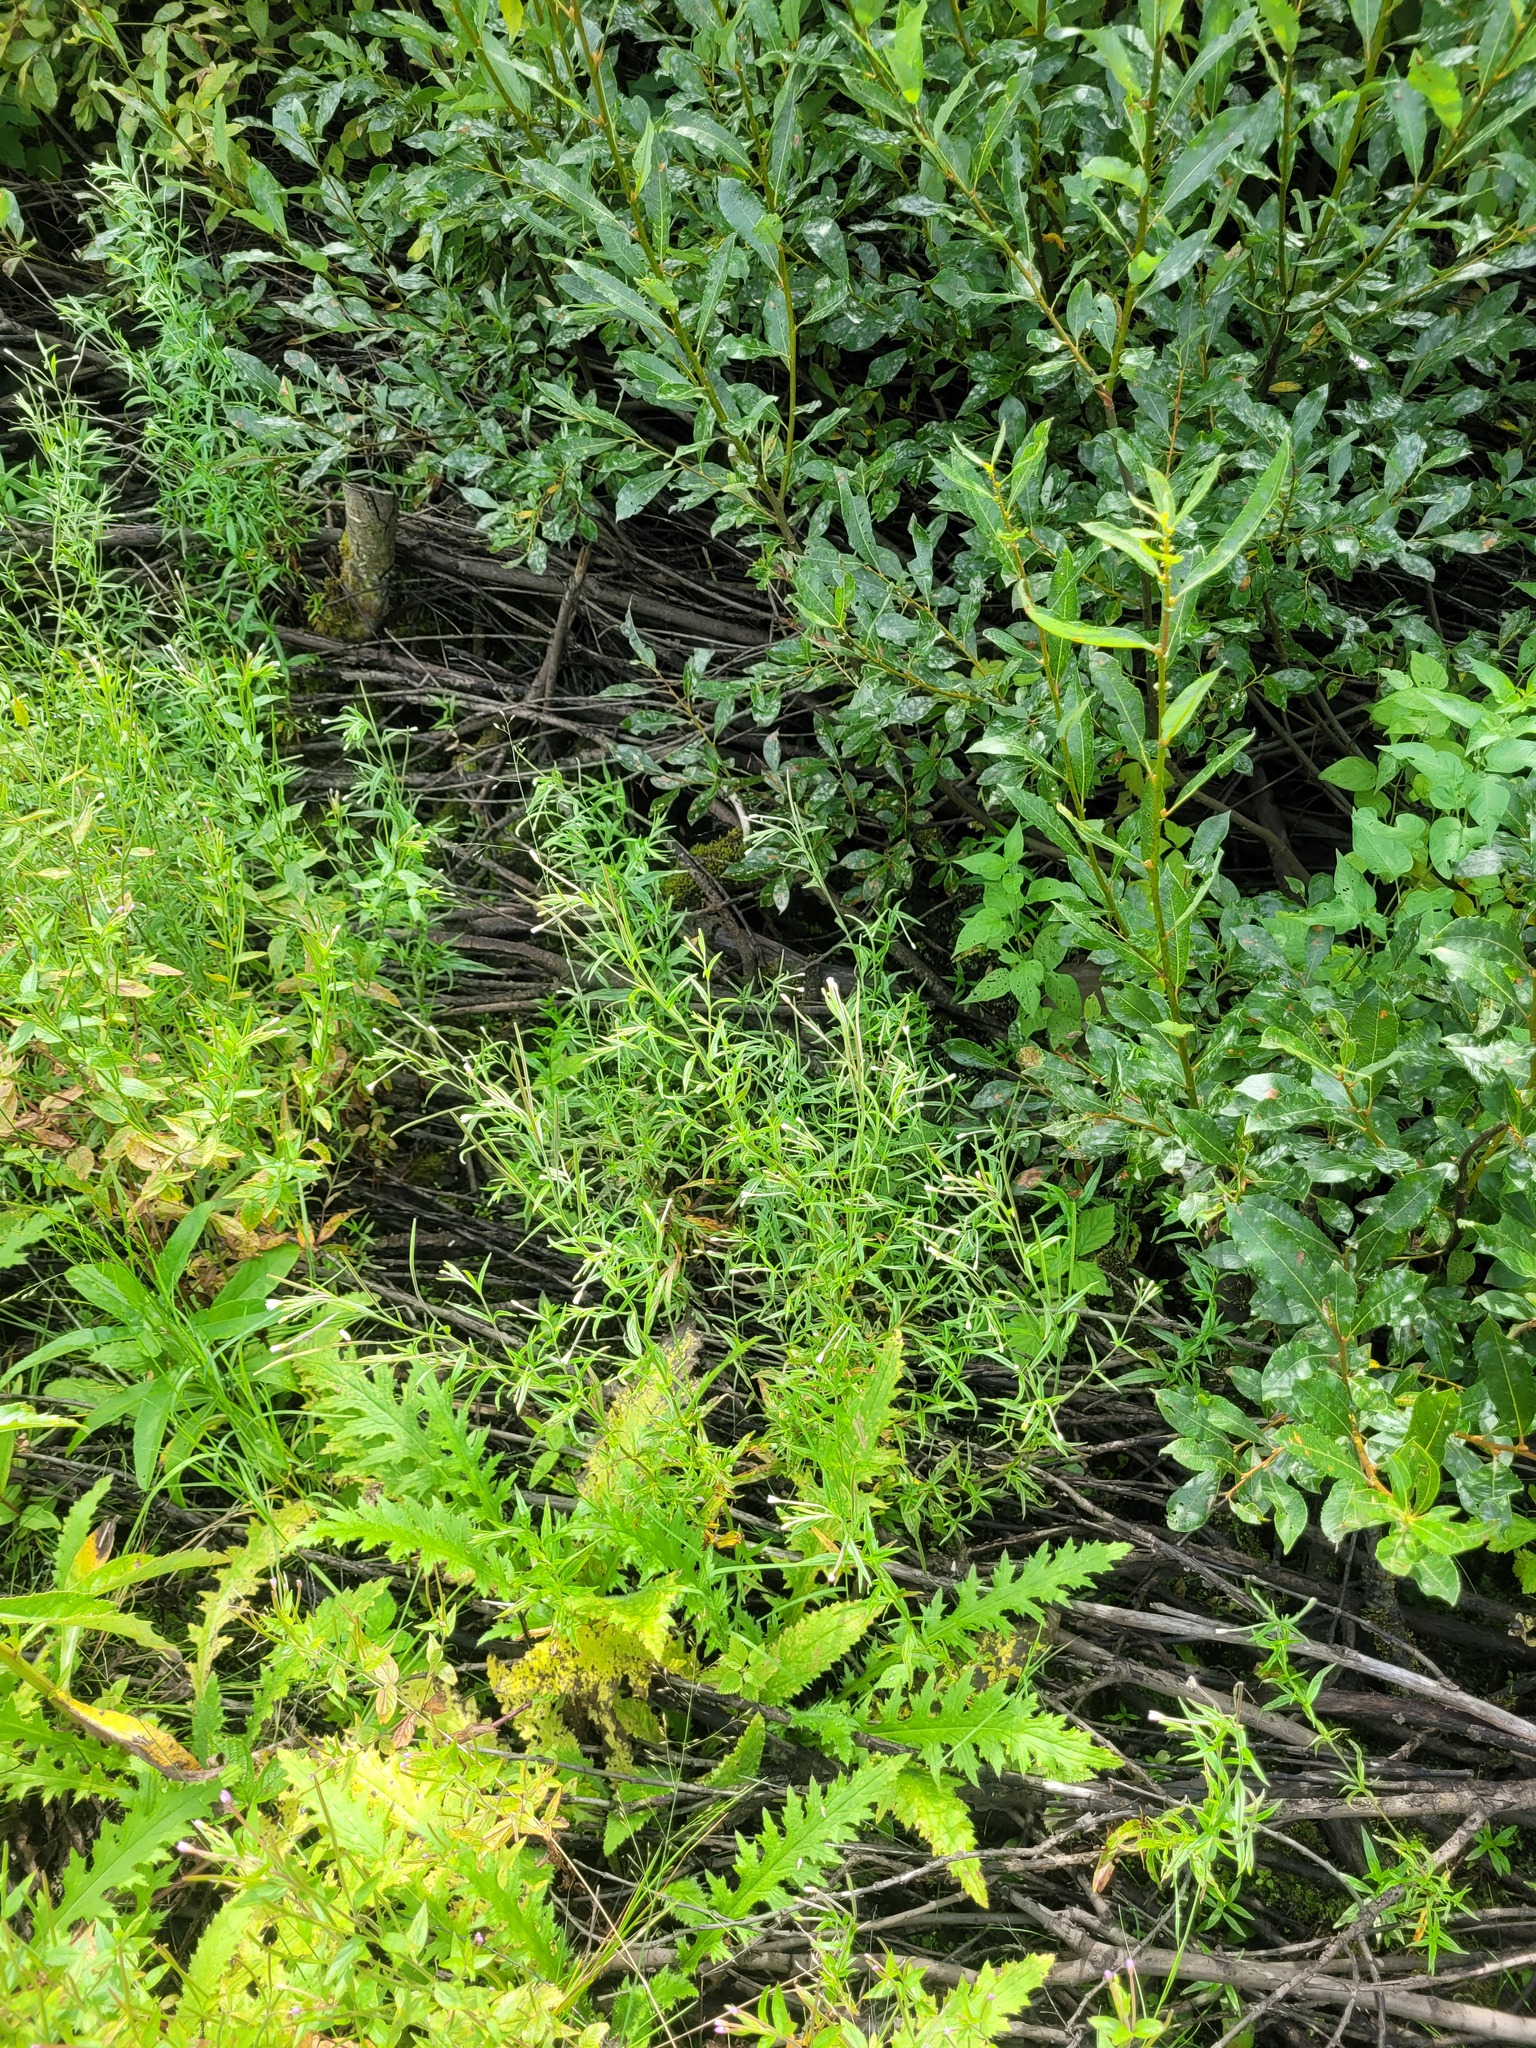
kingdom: Plantae
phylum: Tracheophyta
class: Magnoliopsida
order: Myrtales
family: Onagraceae
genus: Epilobium
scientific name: Epilobium palustre
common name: Marsh willowherb
